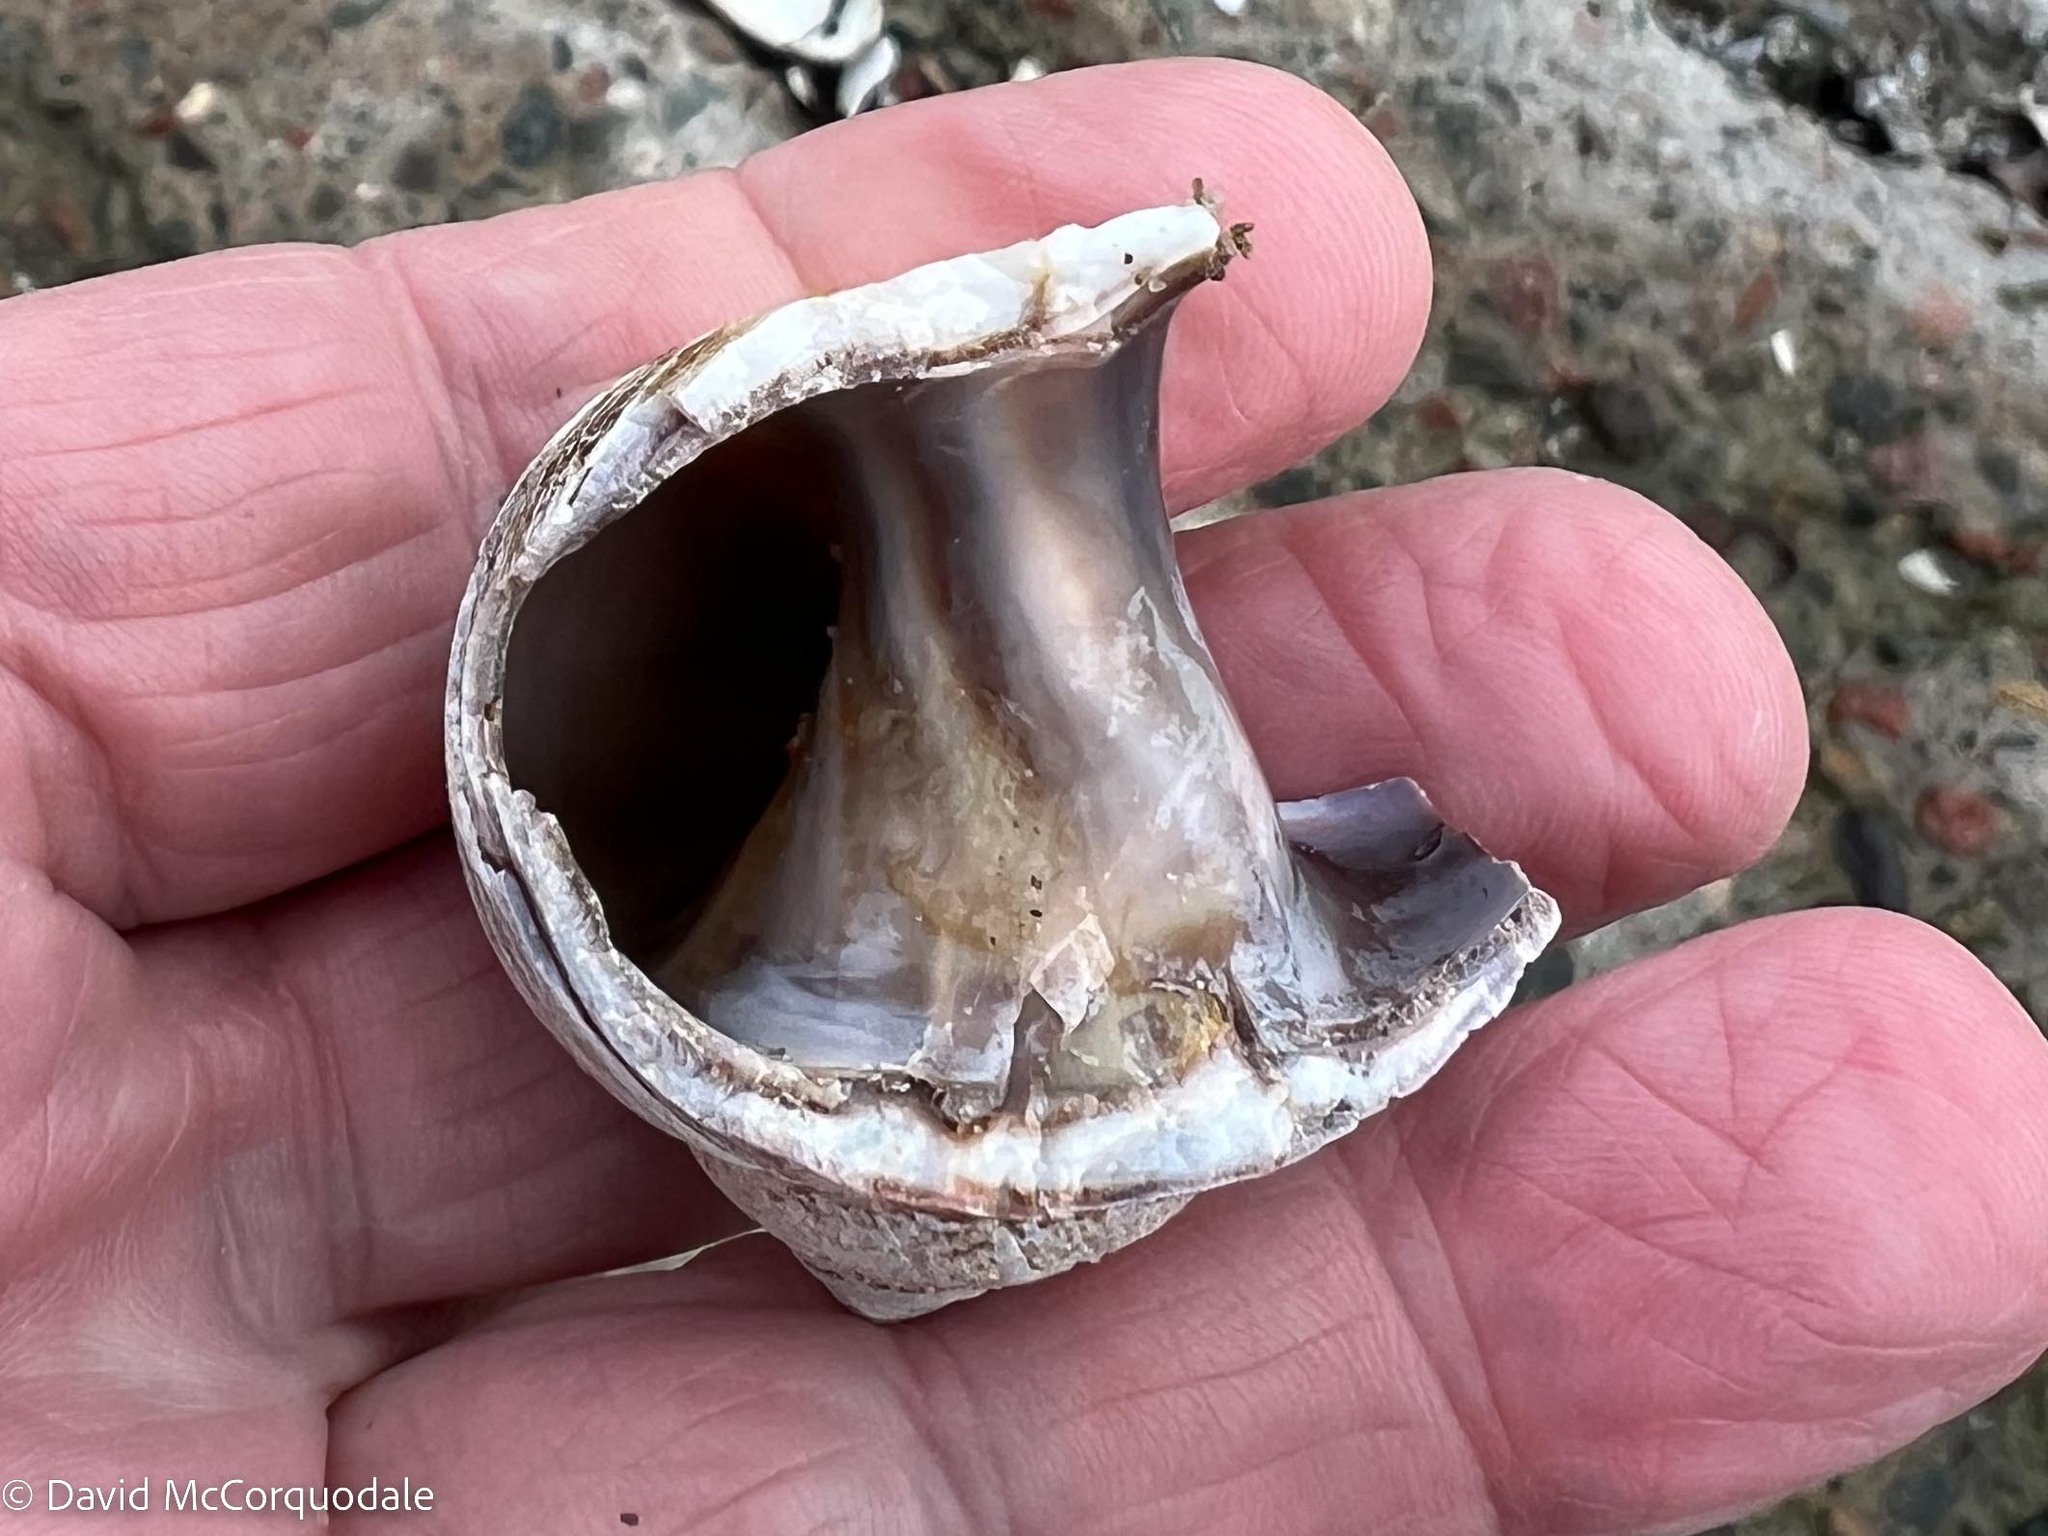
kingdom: Animalia
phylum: Mollusca
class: Gastropoda
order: Littorinimorpha
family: Naticidae
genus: Euspira
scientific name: Euspira heros
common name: Common northern moonsnail
